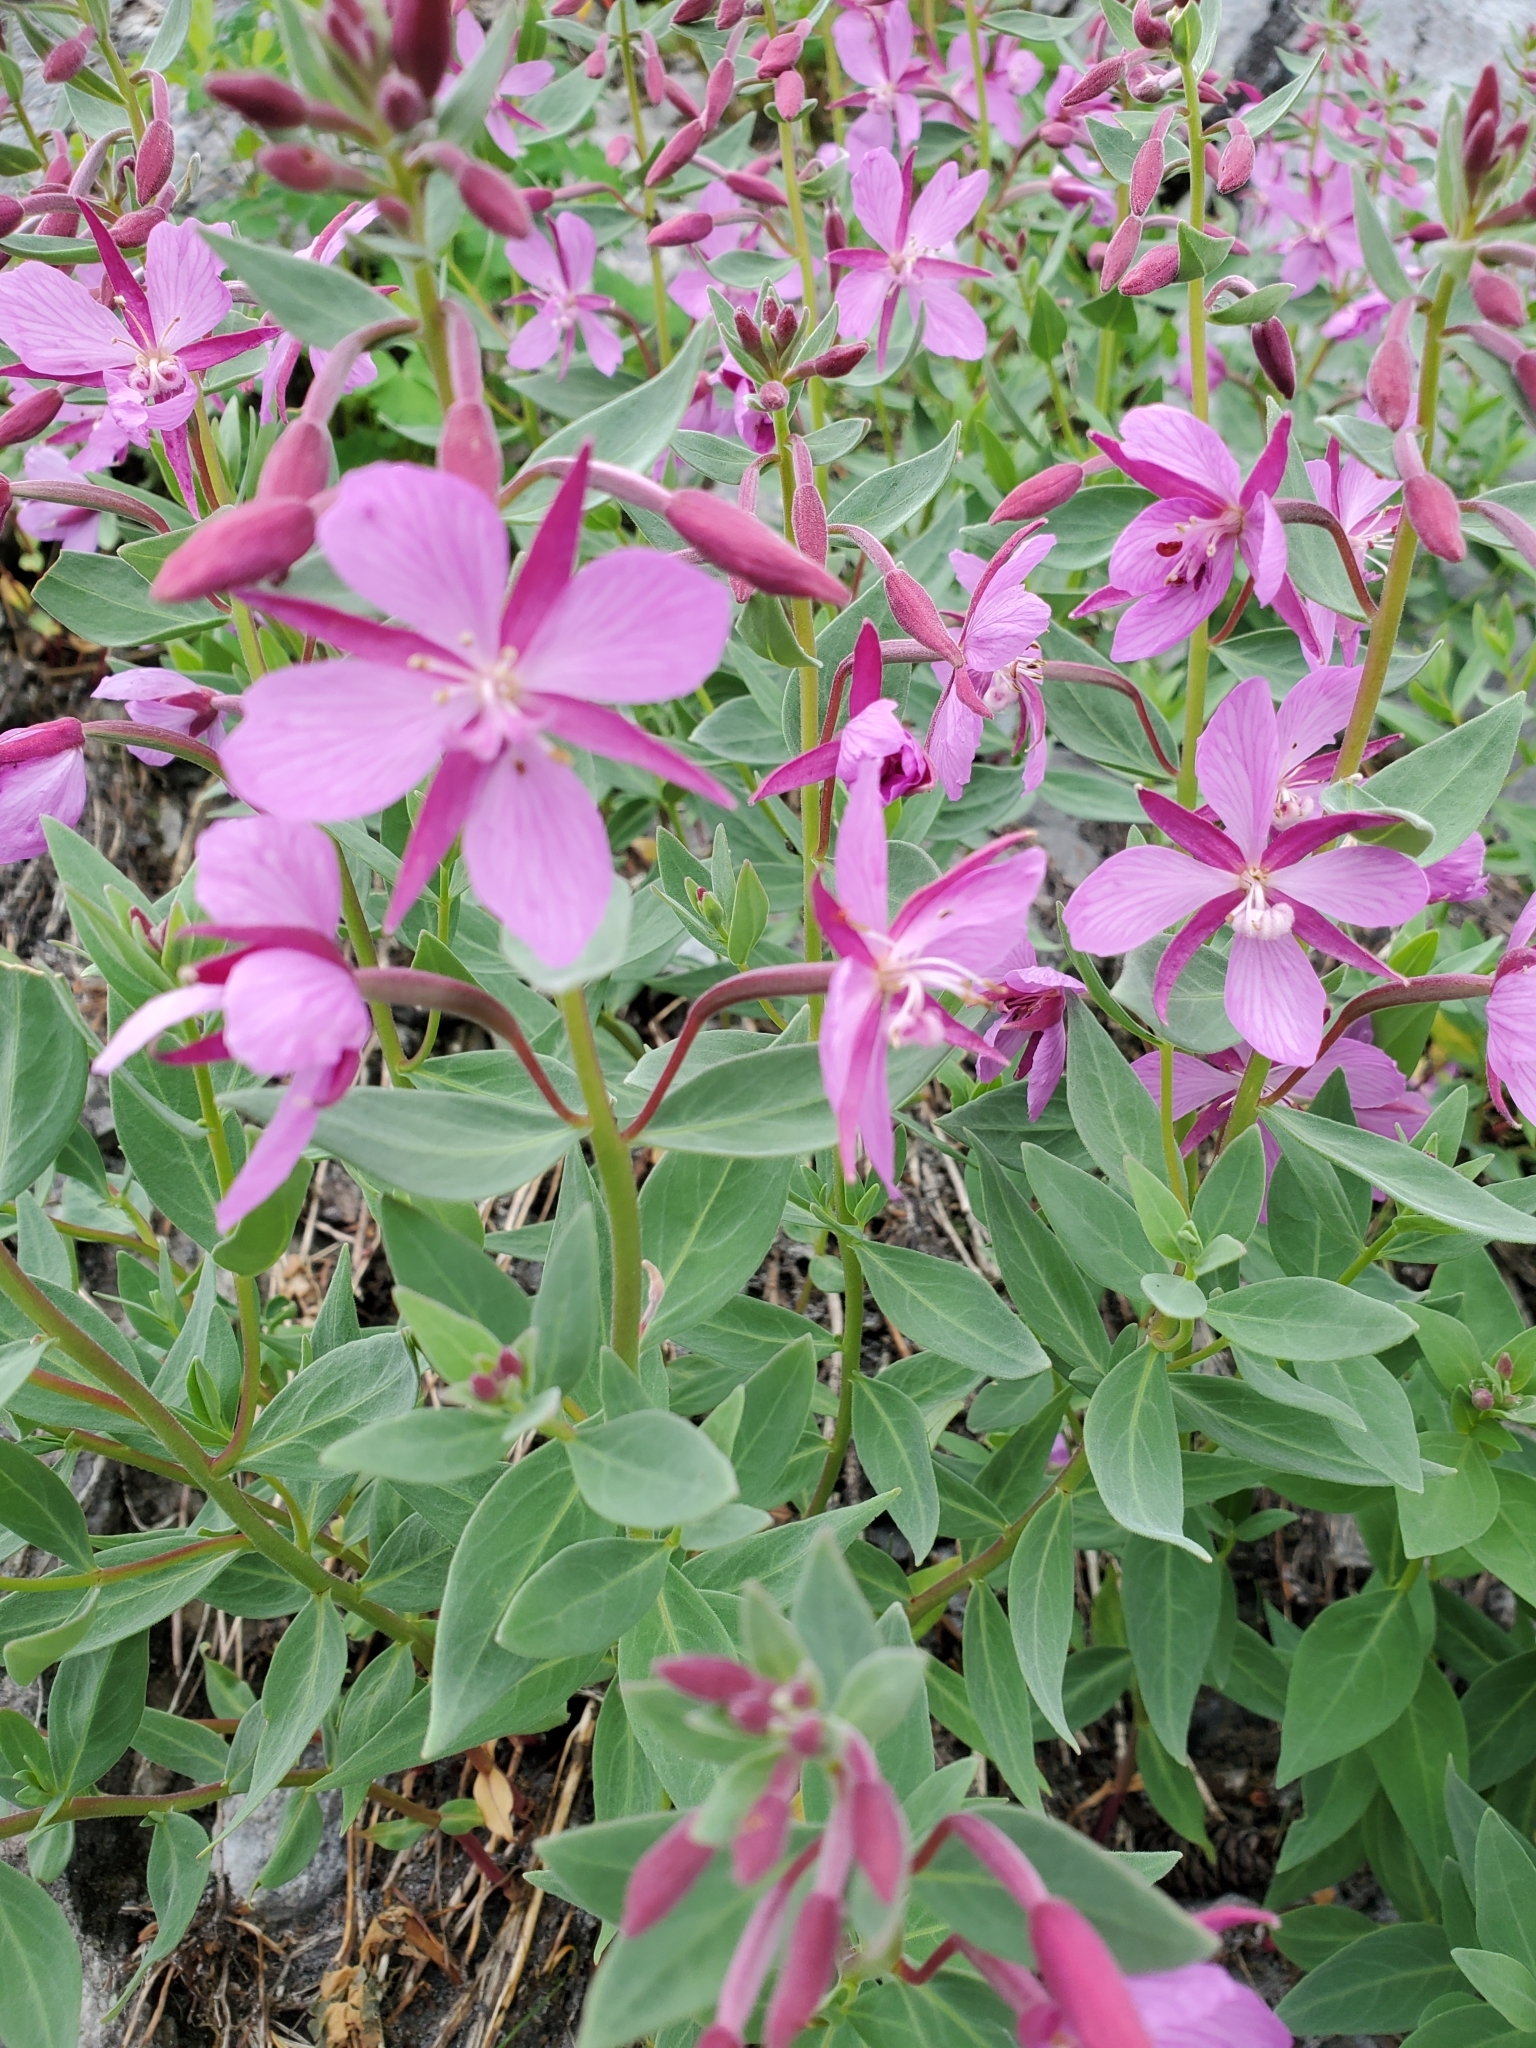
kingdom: Plantae
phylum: Tracheophyta
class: Magnoliopsida
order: Myrtales
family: Onagraceae
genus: Chamaenerion
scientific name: Chamaenerion latifolium
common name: Dwarf fireweed
